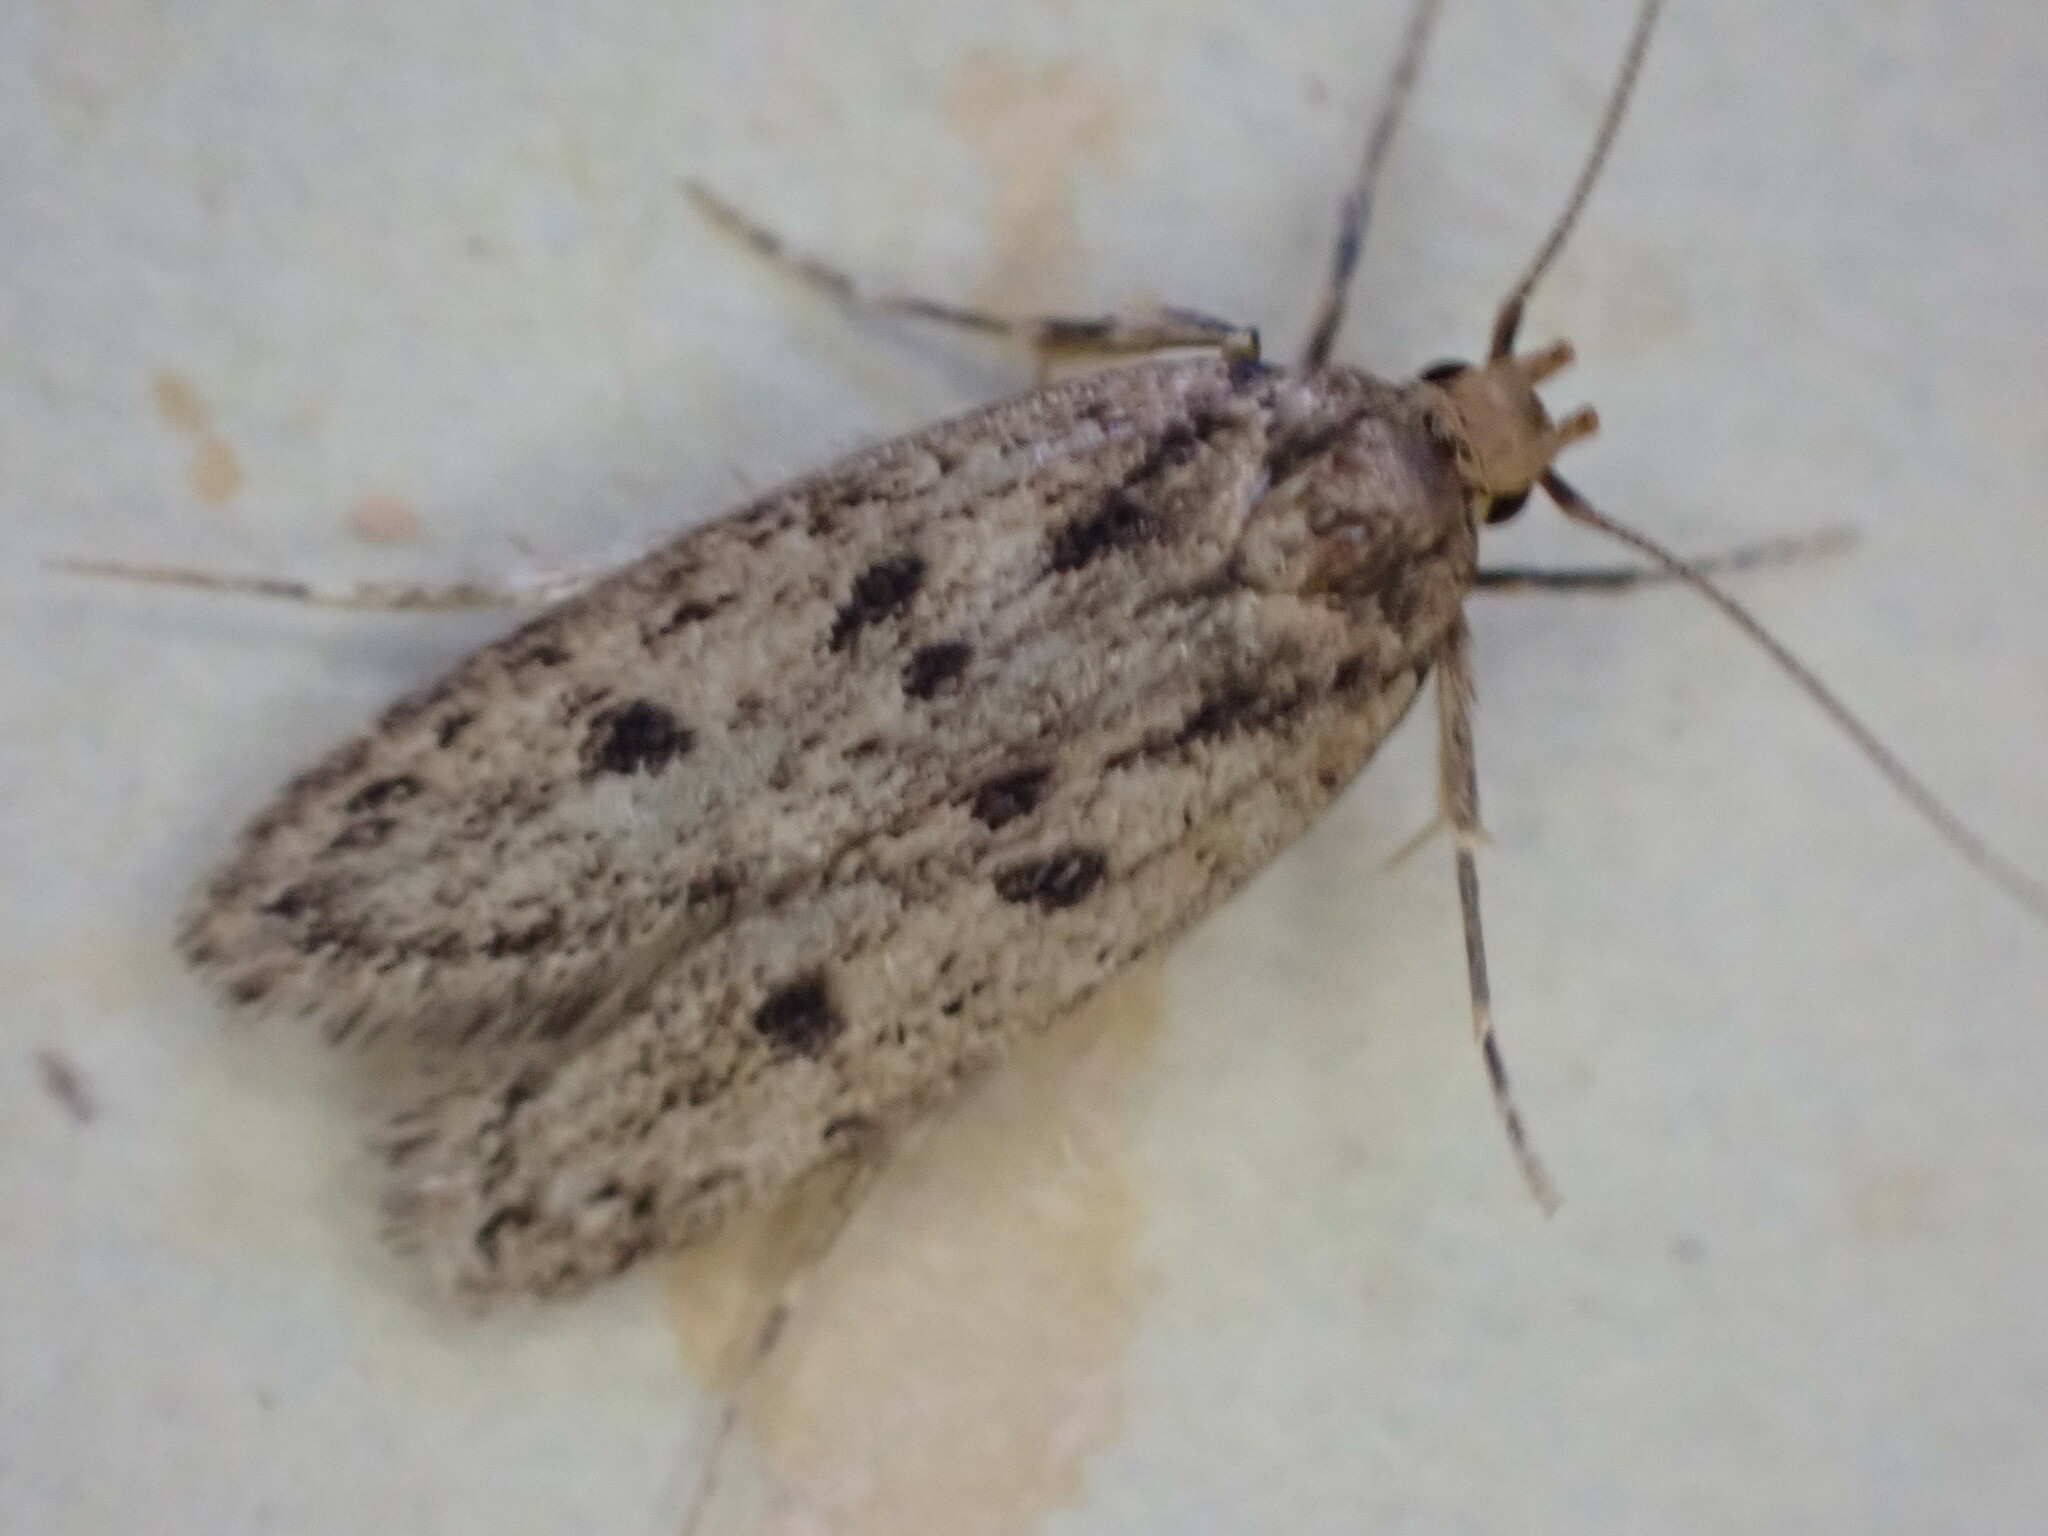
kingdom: Animalia
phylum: Arthropoda
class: Insecta
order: Lepidoptera
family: Oecophoridae
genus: Hofmannophila
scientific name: Hofmannophila pseudospretella
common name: Brown house moth
